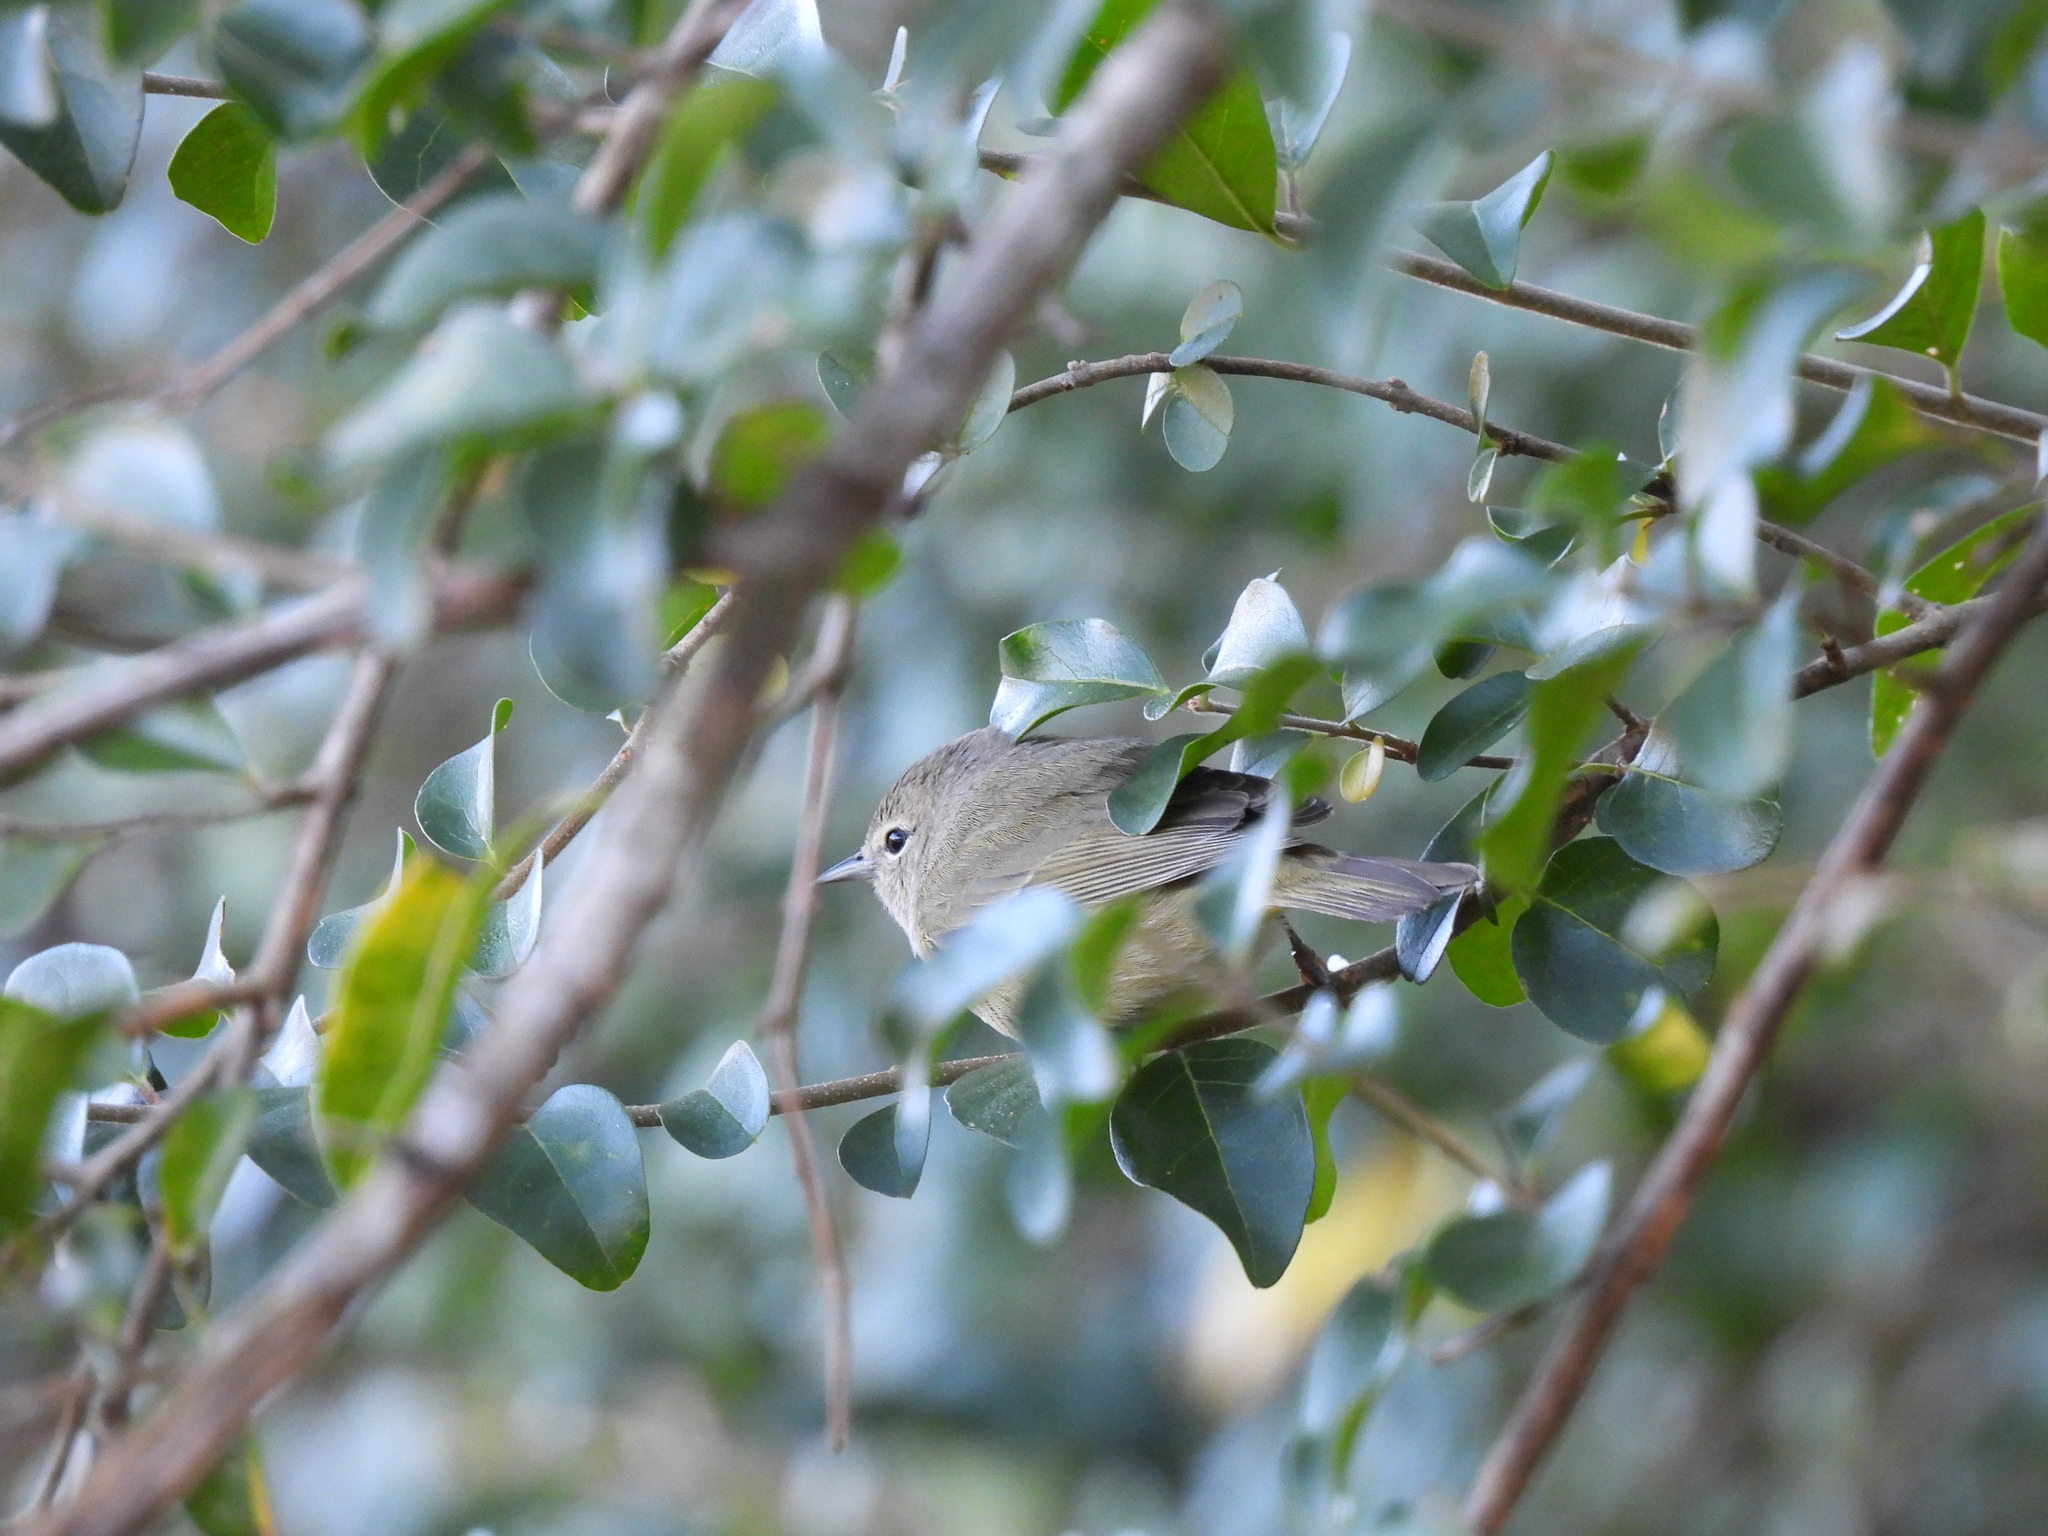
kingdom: Animalia
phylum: Chordata
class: Aves
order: Passeriformes
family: Parulidae
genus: Leiothlypis
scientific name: Leiothlypis celata
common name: Orange-crowned warbler
